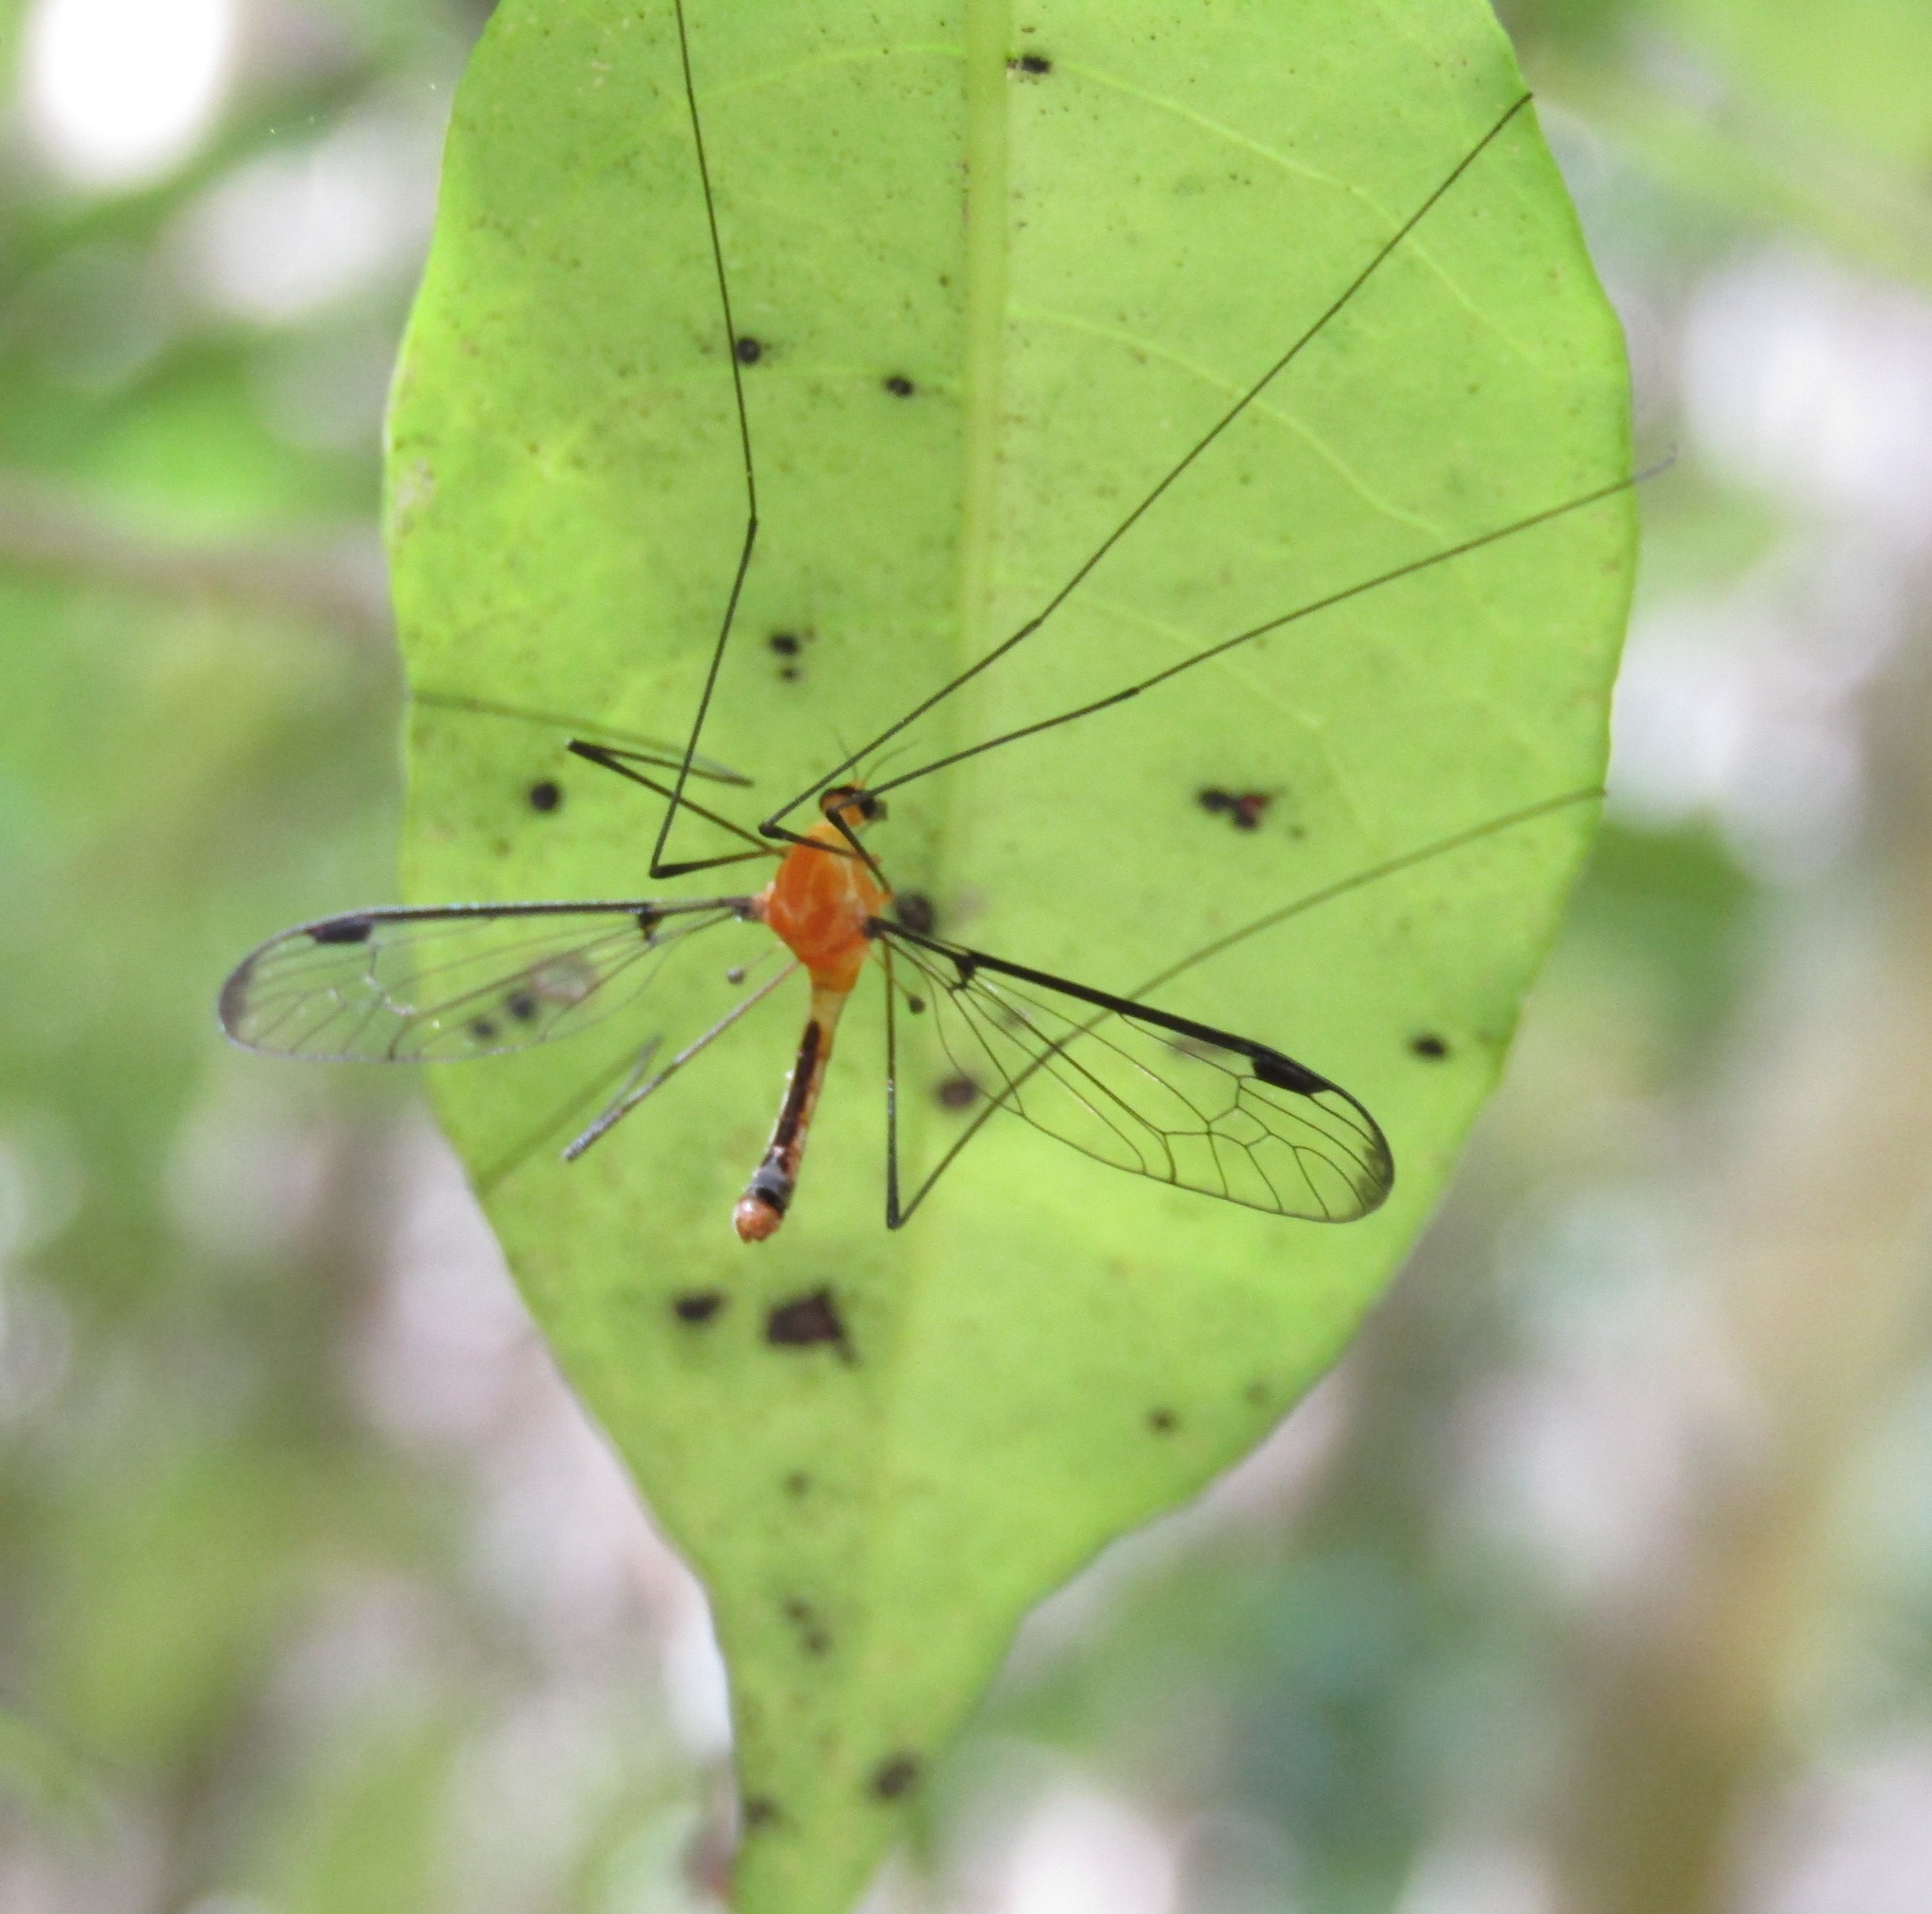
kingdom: Animalia
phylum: Arthropoda
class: Insecta
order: Diptera
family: Tipulidae
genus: Aurotipula
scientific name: Aurotipula
